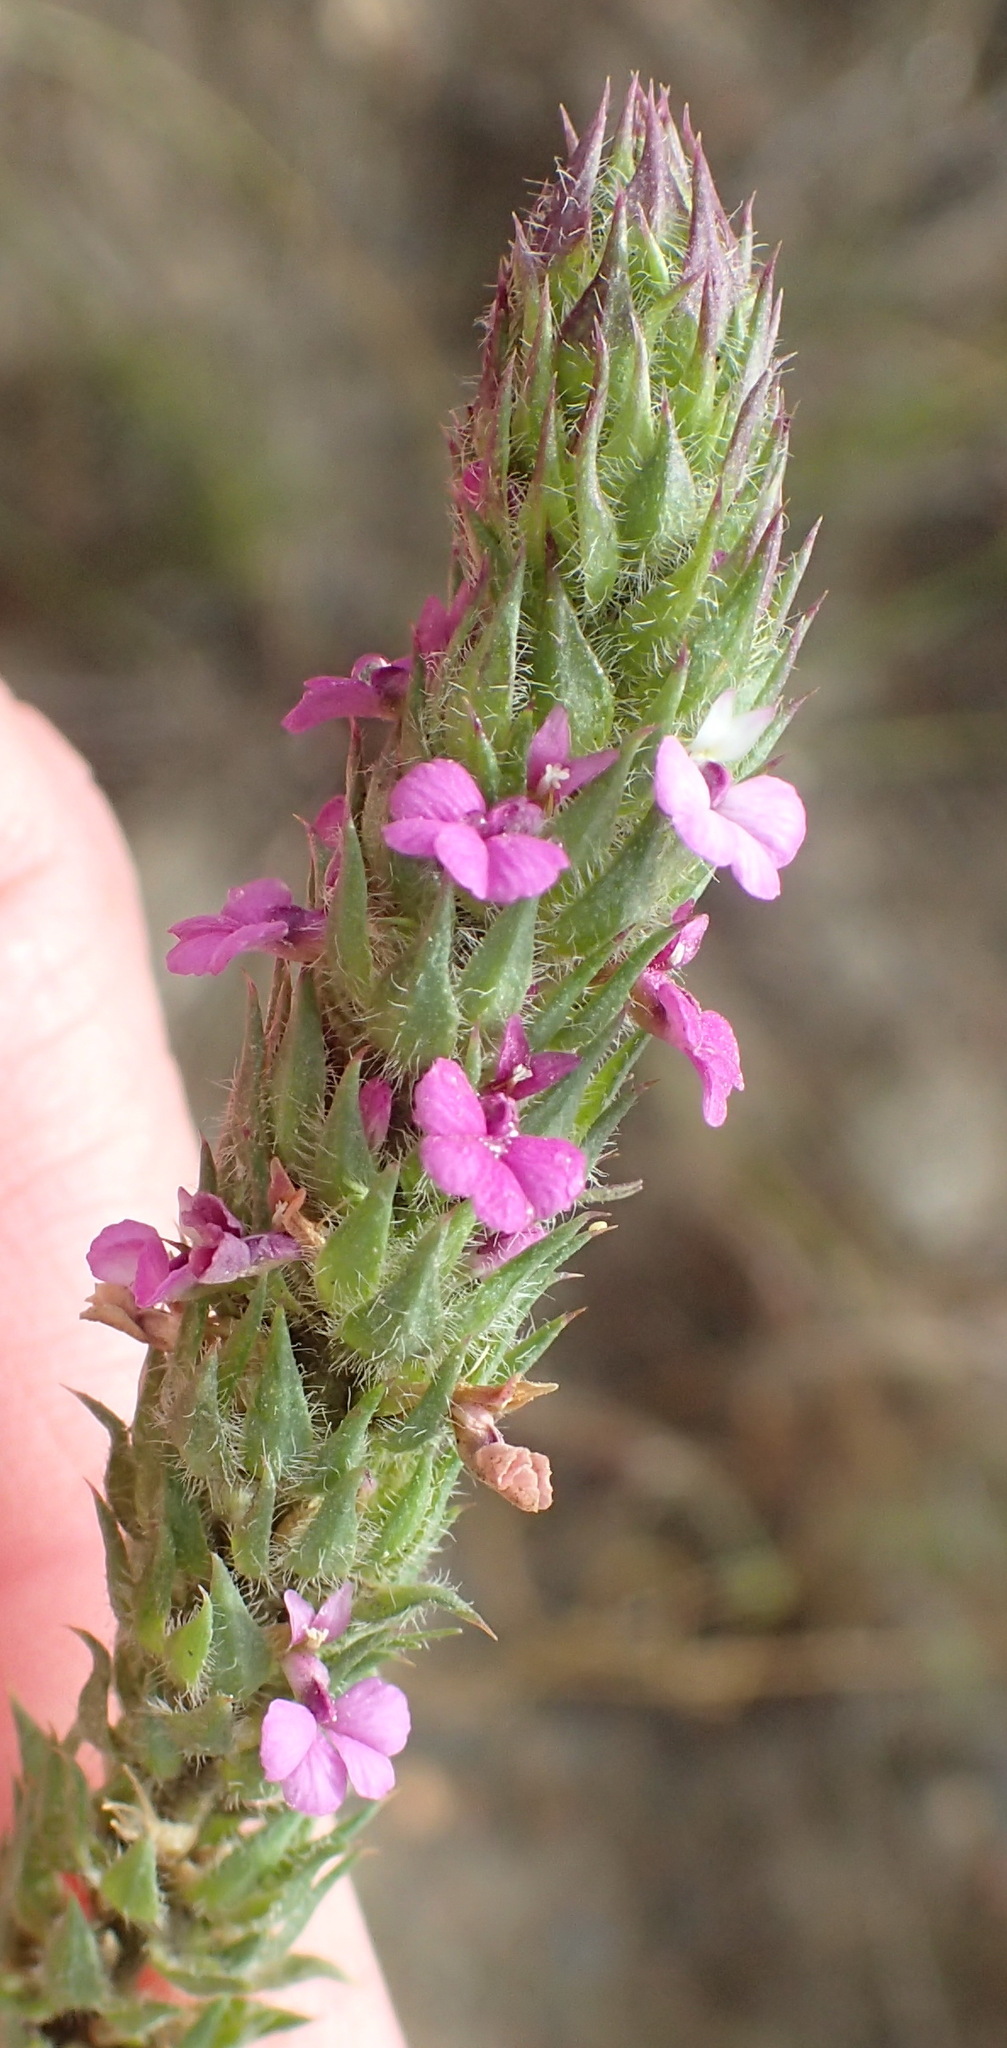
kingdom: Plantae
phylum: Tracheophyta
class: Magnoliopsida
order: Fabales
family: Polygalaceae
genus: Muraltia
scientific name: Muraltia ciliaris
